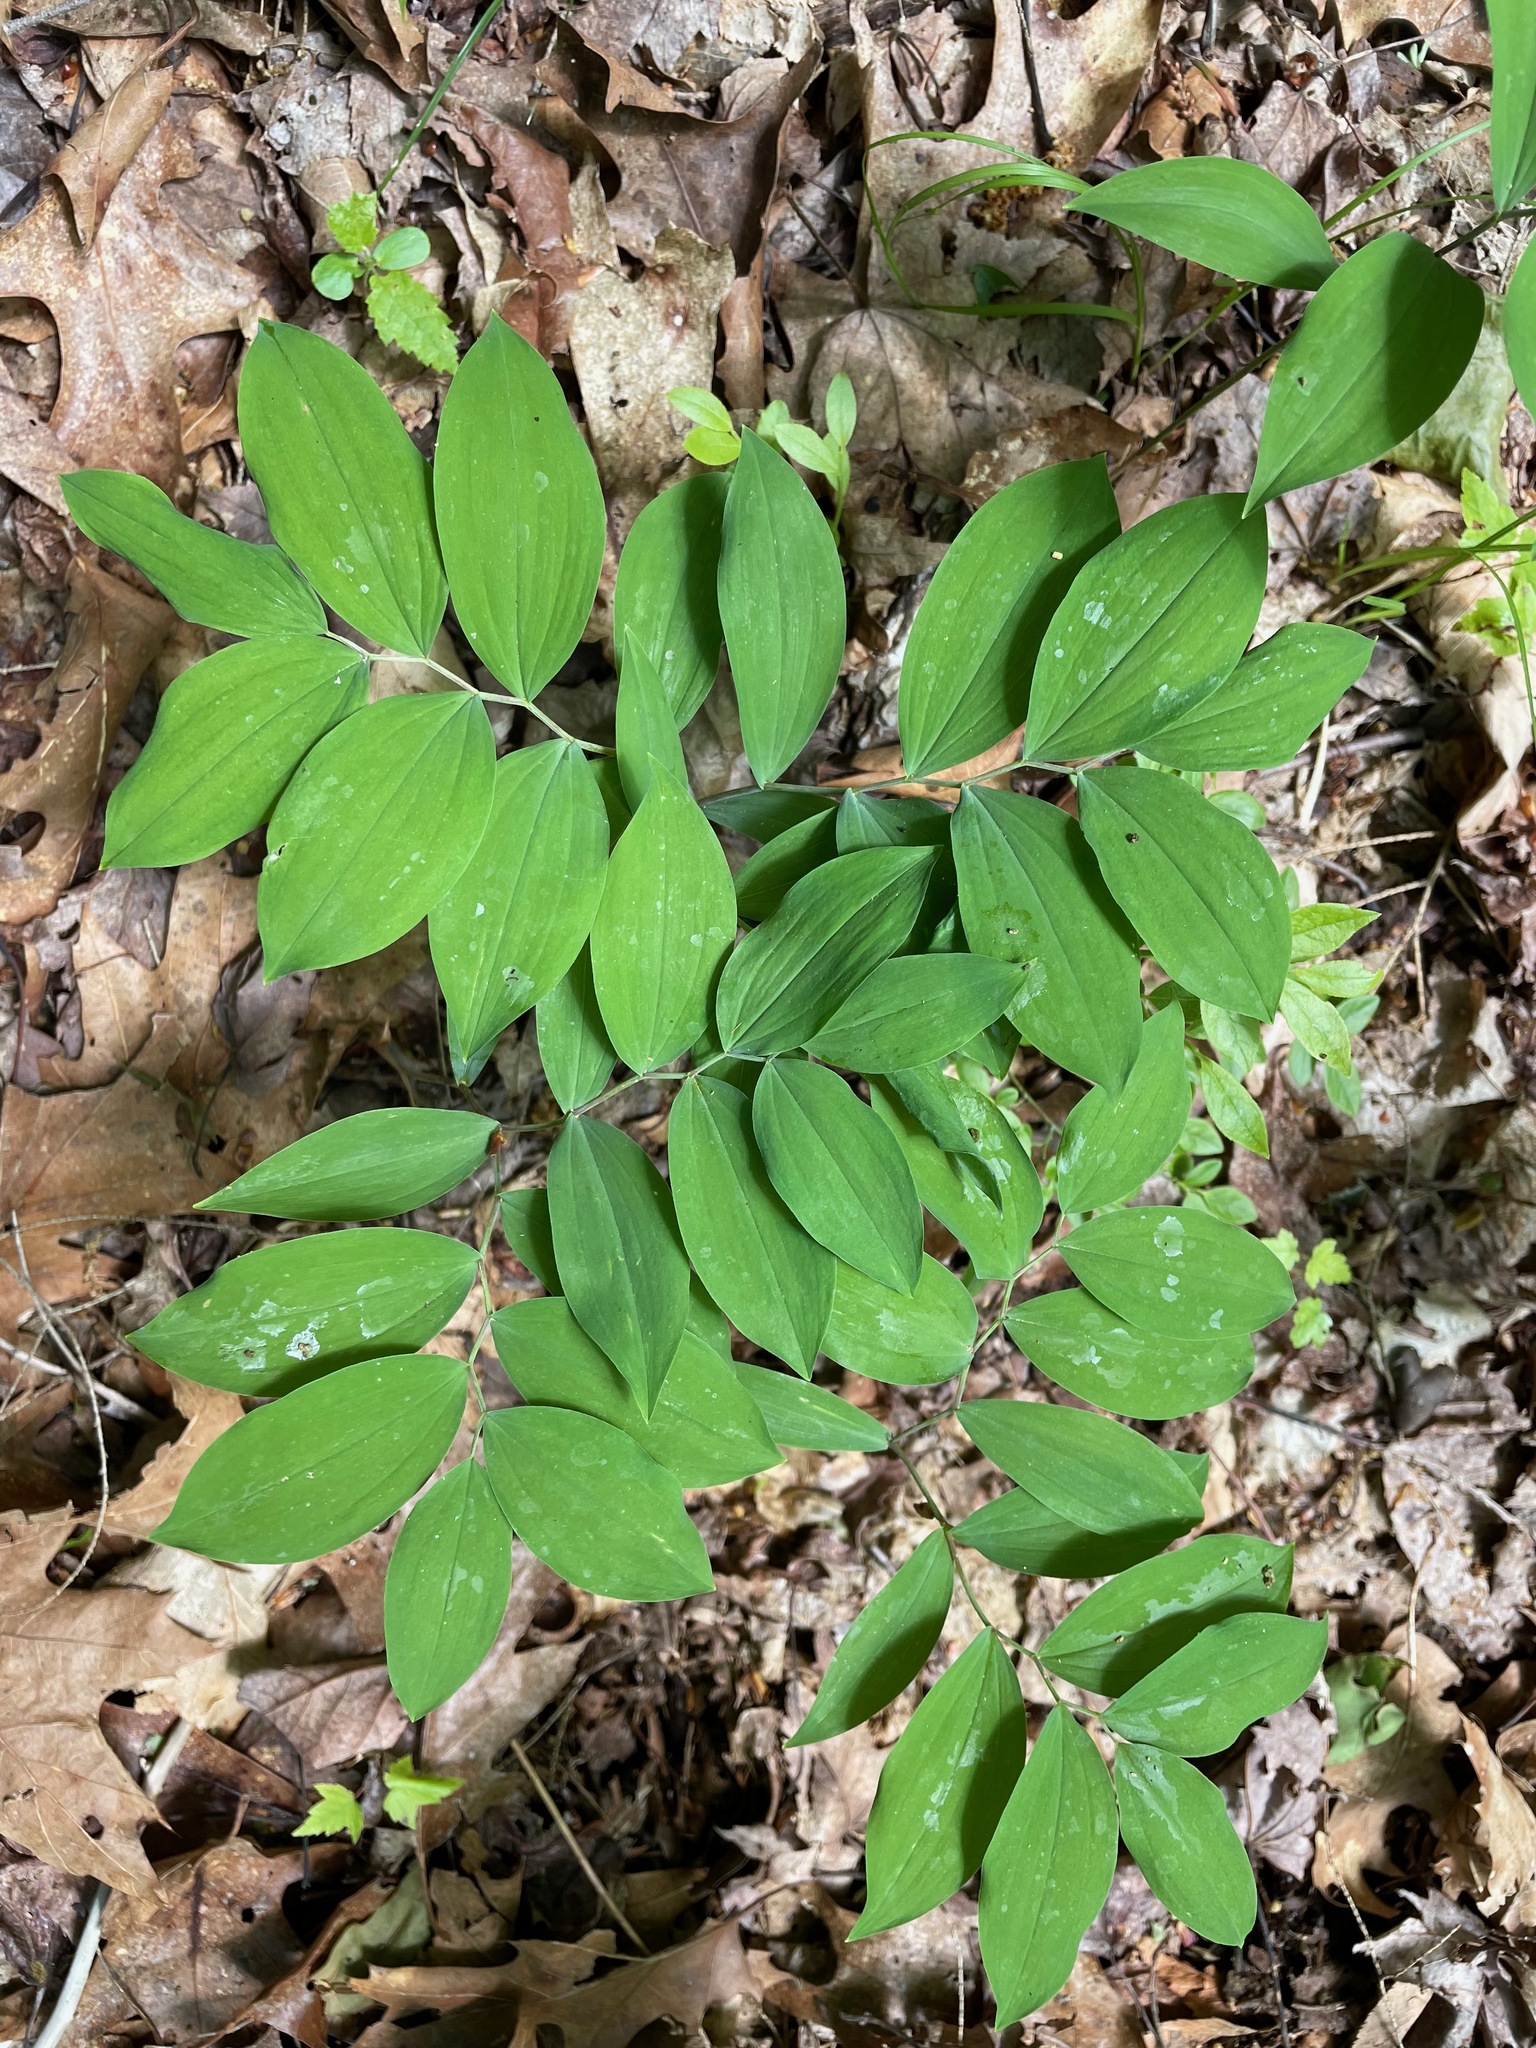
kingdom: Plantae
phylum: Tracheophyta
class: Liliopsida
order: Liliales
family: Colchicaceae
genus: Uvularia
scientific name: Uvularia sessilifolia
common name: Straw-lily
